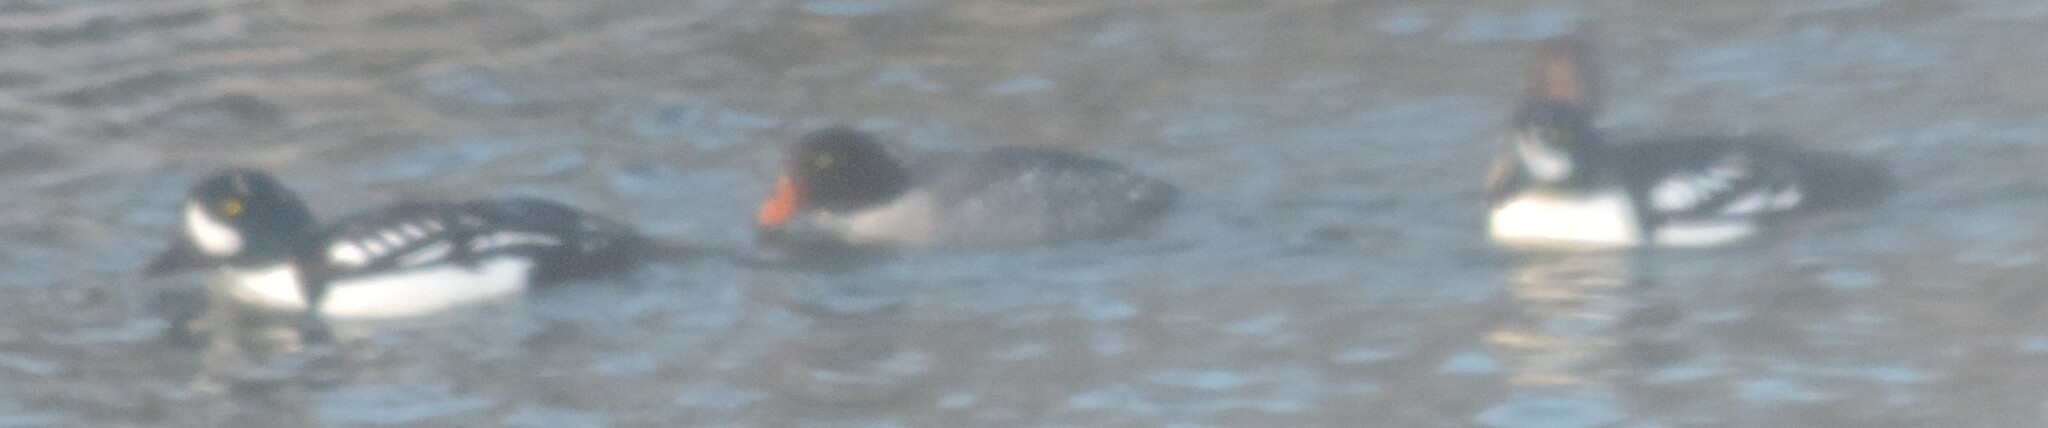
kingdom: Animalia
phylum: Chordata
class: Aves
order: Anseriformes
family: Anatidae
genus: Bucephala
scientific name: Bucephala islandica
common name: Barrow's goldeneye
